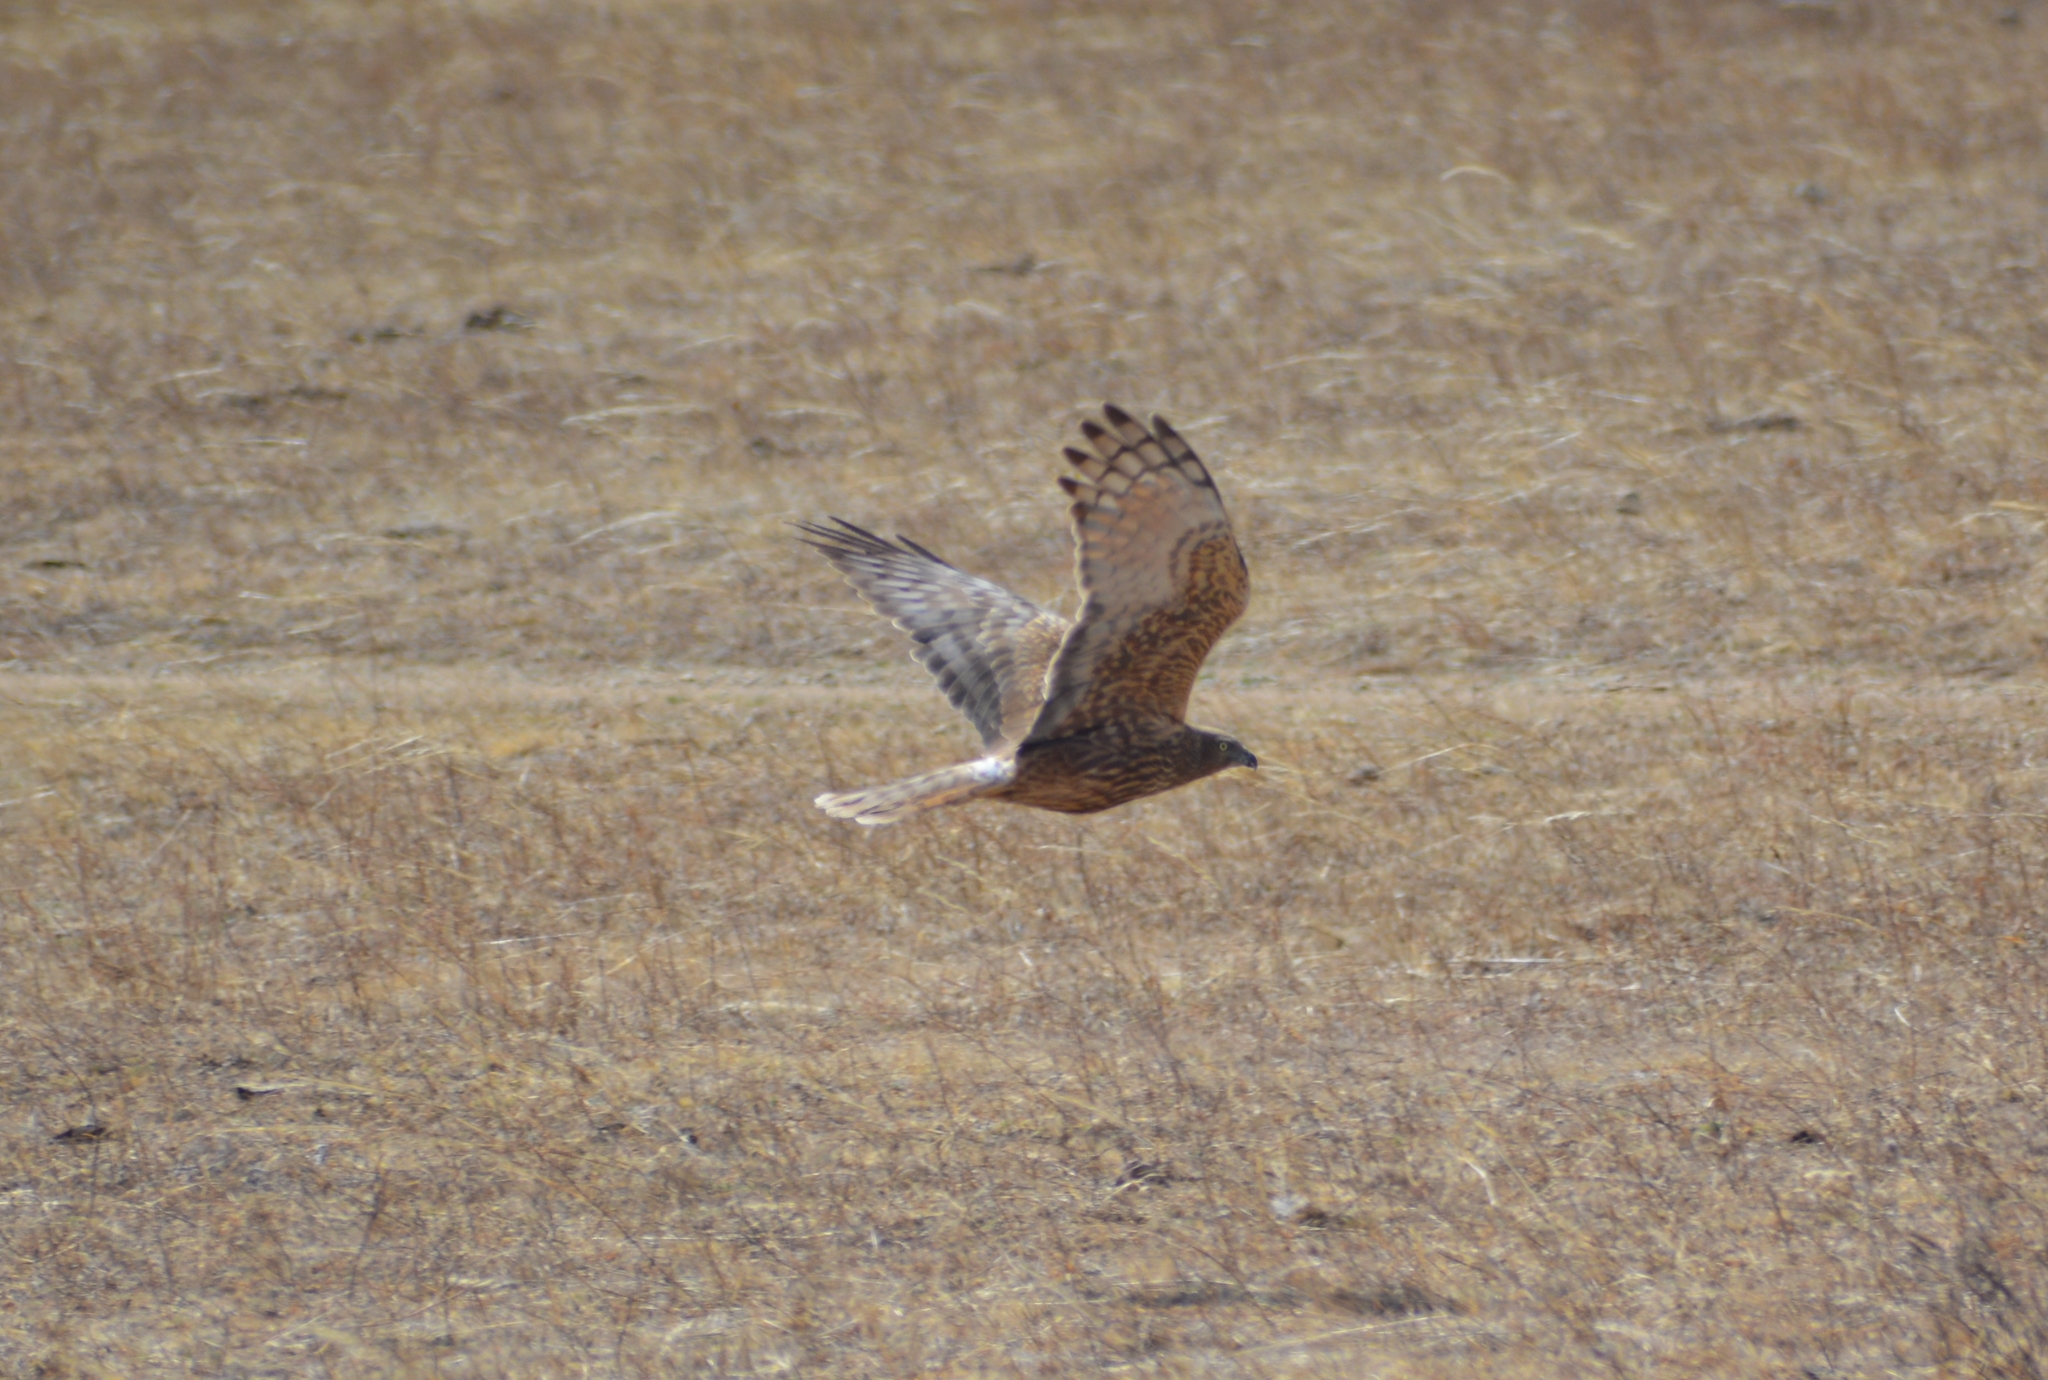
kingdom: Animalia
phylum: Chordata
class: Aves
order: Accipitriformes
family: Accipitridae
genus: Circus
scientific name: Circus spilonotus
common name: Eastern marsh-harrier
